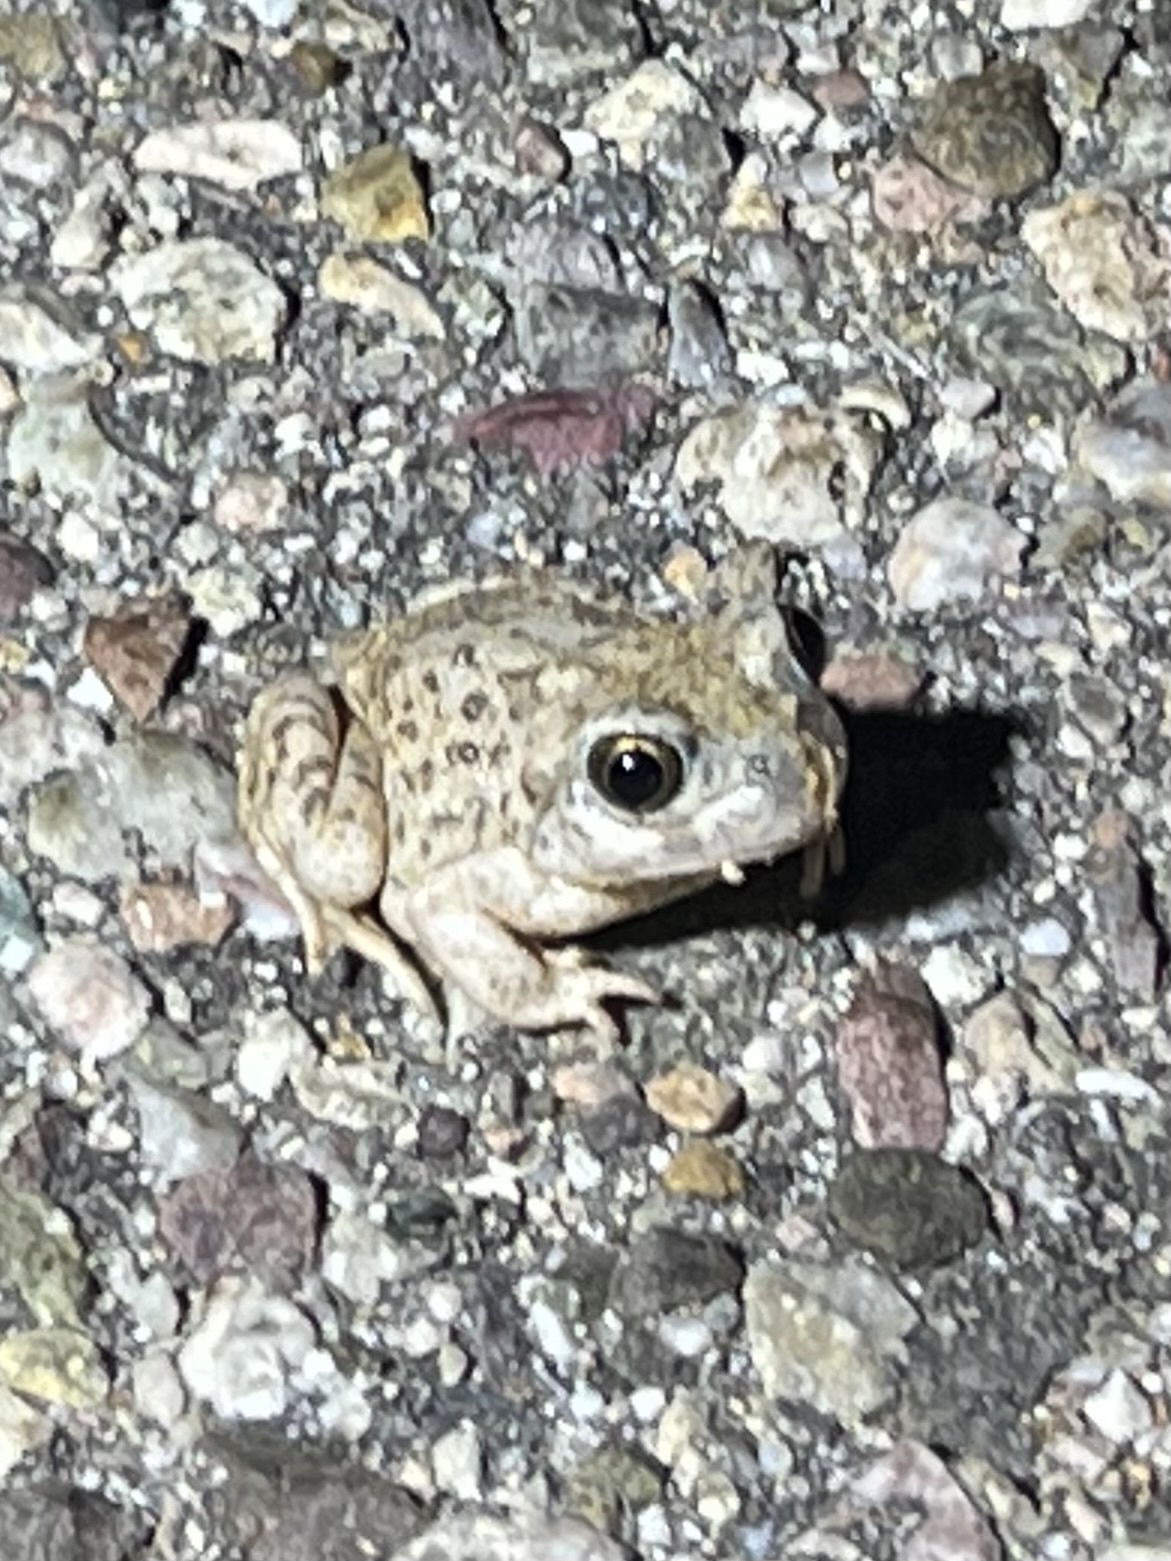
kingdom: Animalia
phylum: Chordata
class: Amphibia
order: Anura
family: Scaphiopodidae
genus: Spea
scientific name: Spea multiplicata
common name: Mexican spadefoot
